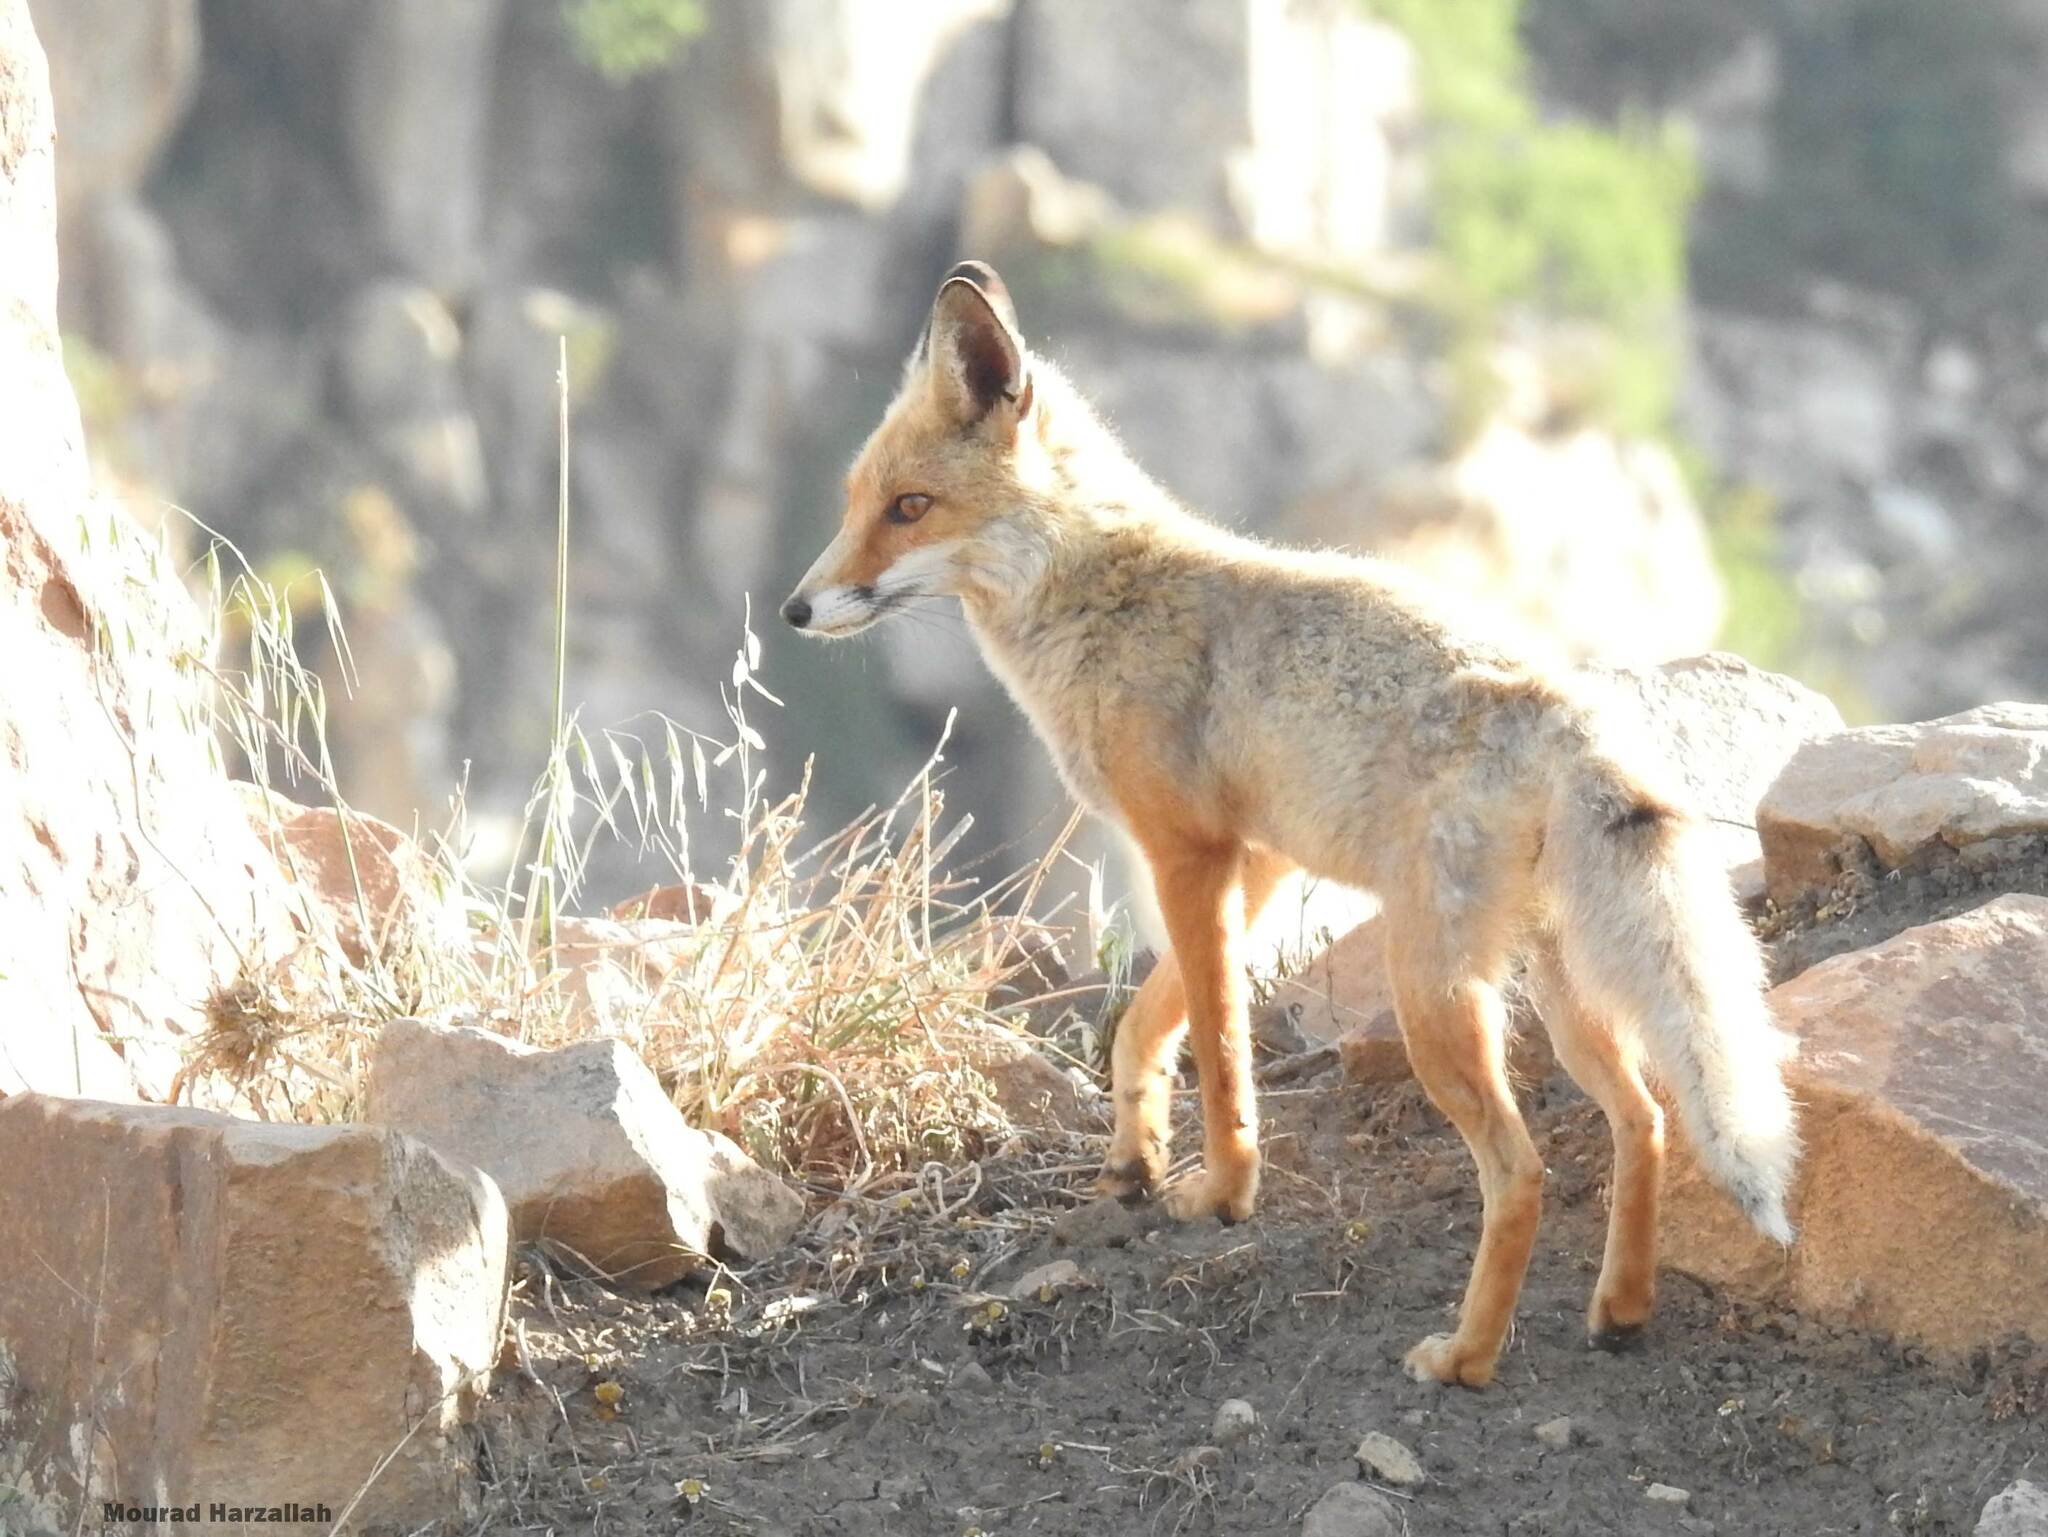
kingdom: Animalia
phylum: Chordata
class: Mammalia
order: Carnivora
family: Canidae
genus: Vulpes
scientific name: Vulpes vulpes
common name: Red fox
